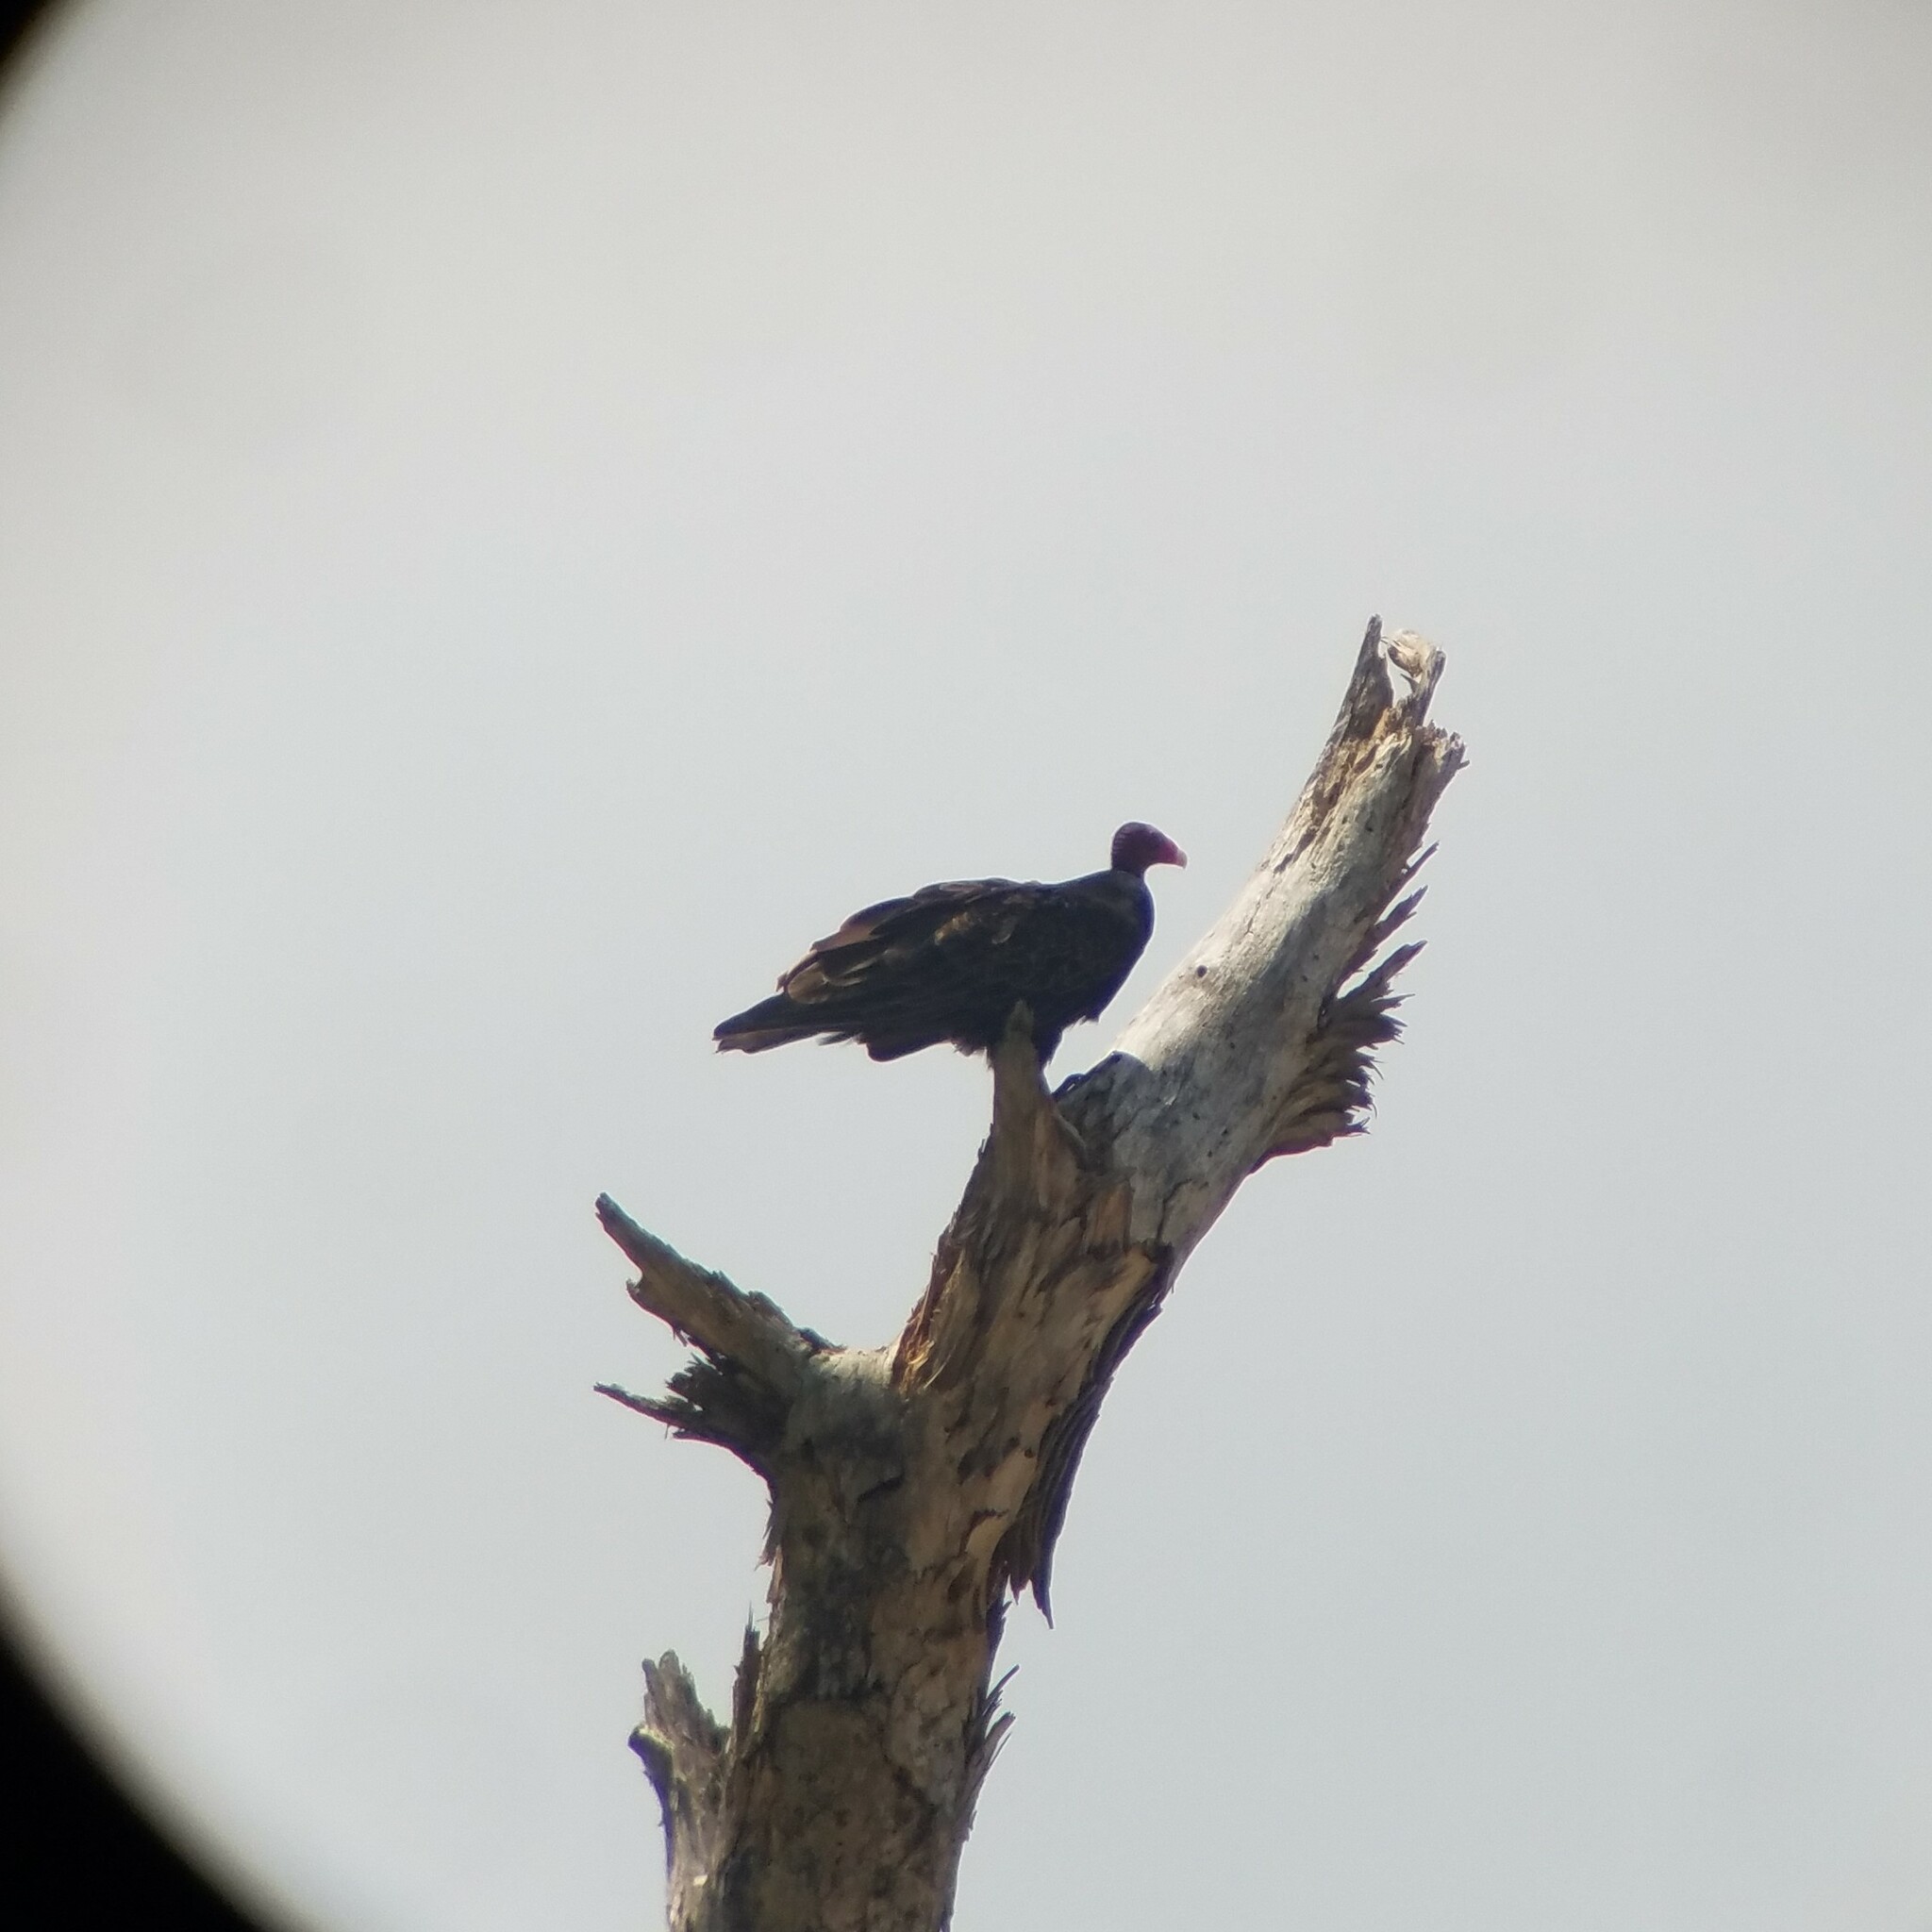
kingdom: Animalia
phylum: Chordata
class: Aves
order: Accipitriformes
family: Cathartidae
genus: Cathartes
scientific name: Cathartes aura
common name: Turkey vulture
